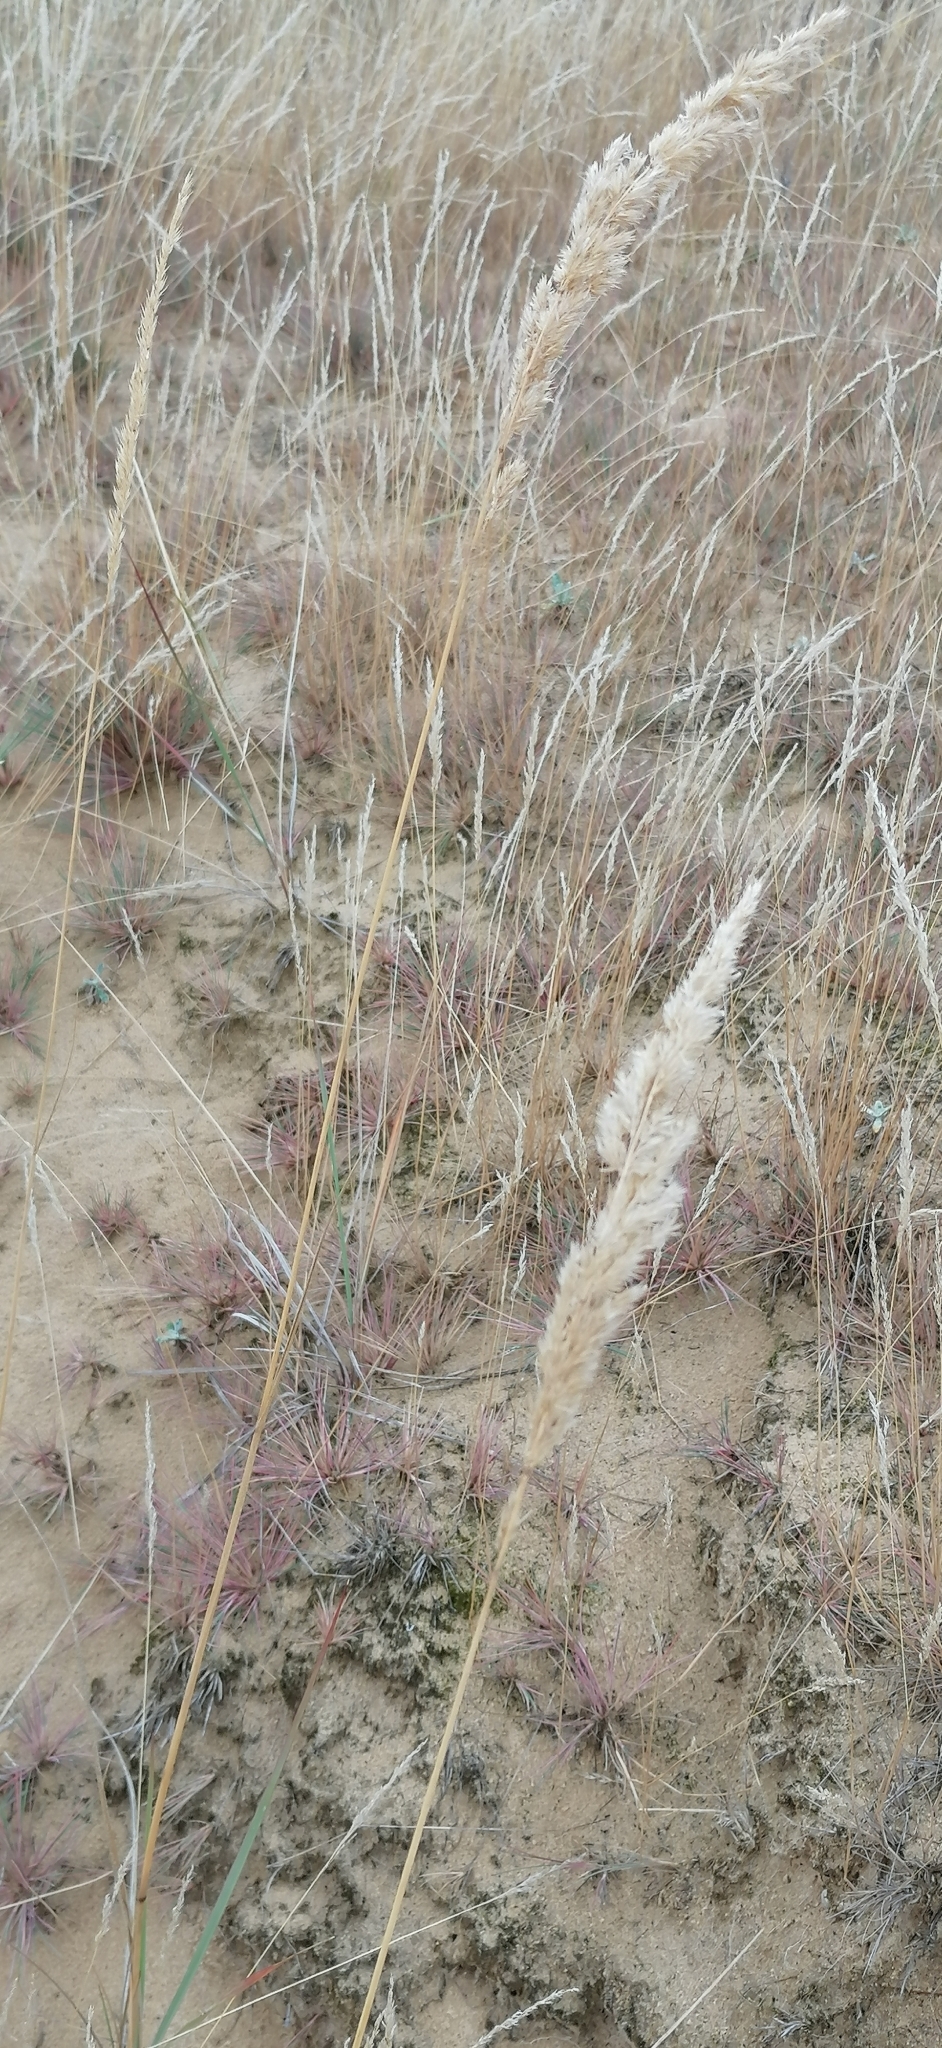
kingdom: Plantae
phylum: Tracheophyta
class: Liliopsida
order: Poales
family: Poaceae
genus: Calamagrostis
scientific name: Calamagrostis epigejos
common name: Wood small-reed
